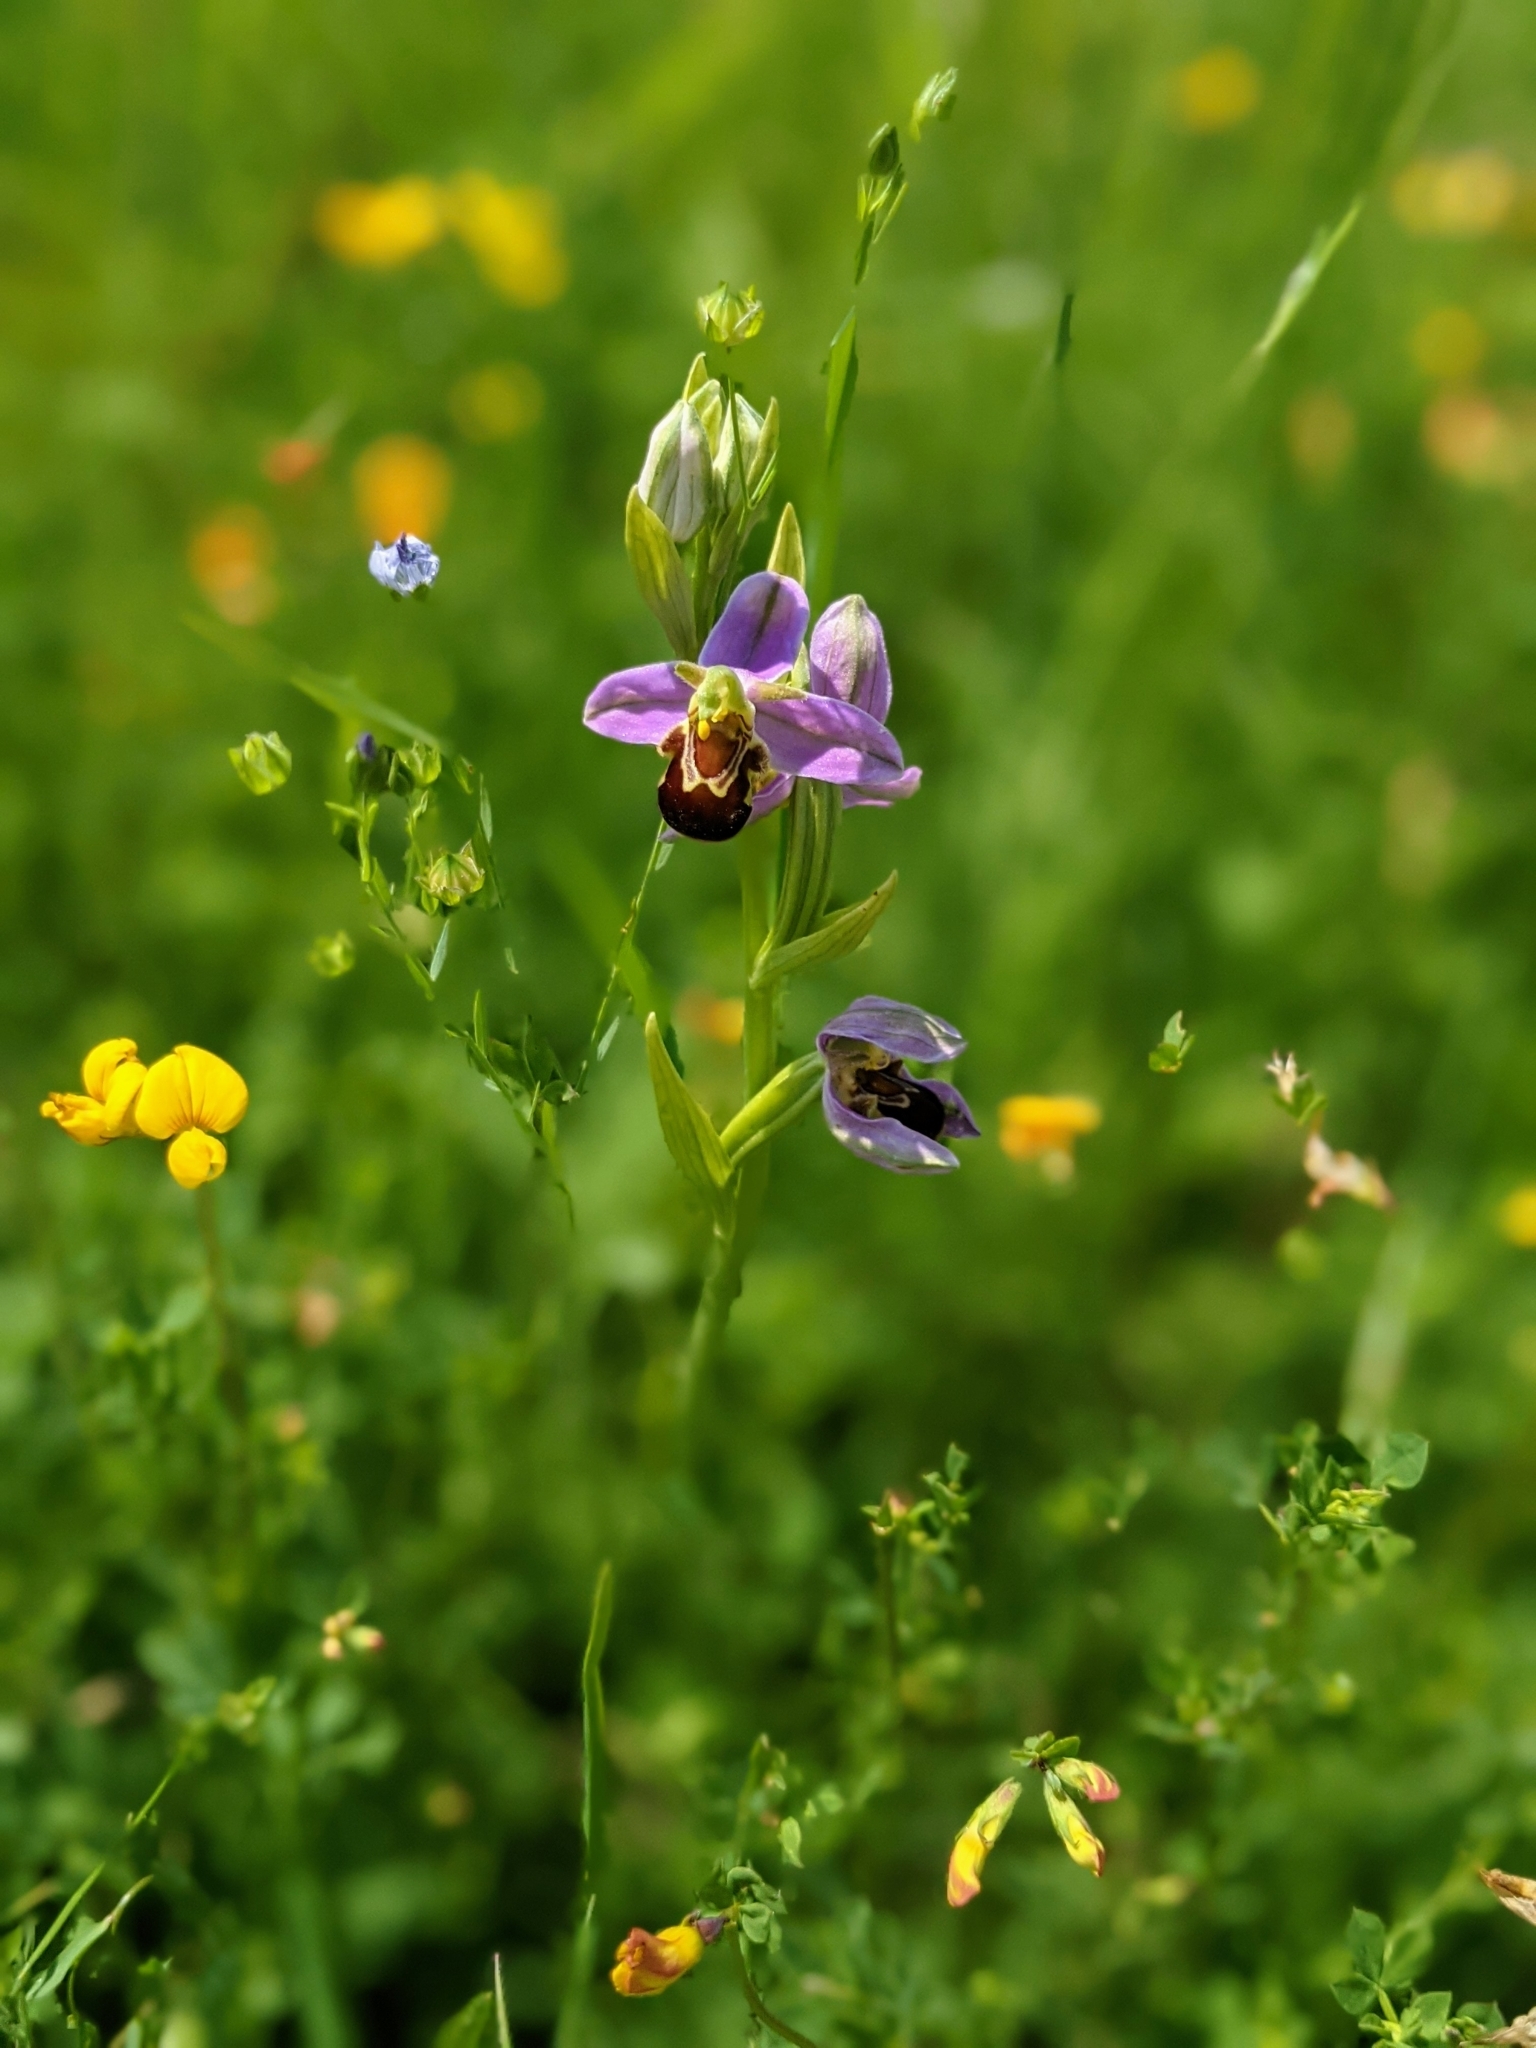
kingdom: Plantae
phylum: Tracheophyta
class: Liliopsida
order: Asparagales
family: Orchidaceae
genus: Ophrys
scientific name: Ophrys apifera
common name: Bee orchid
